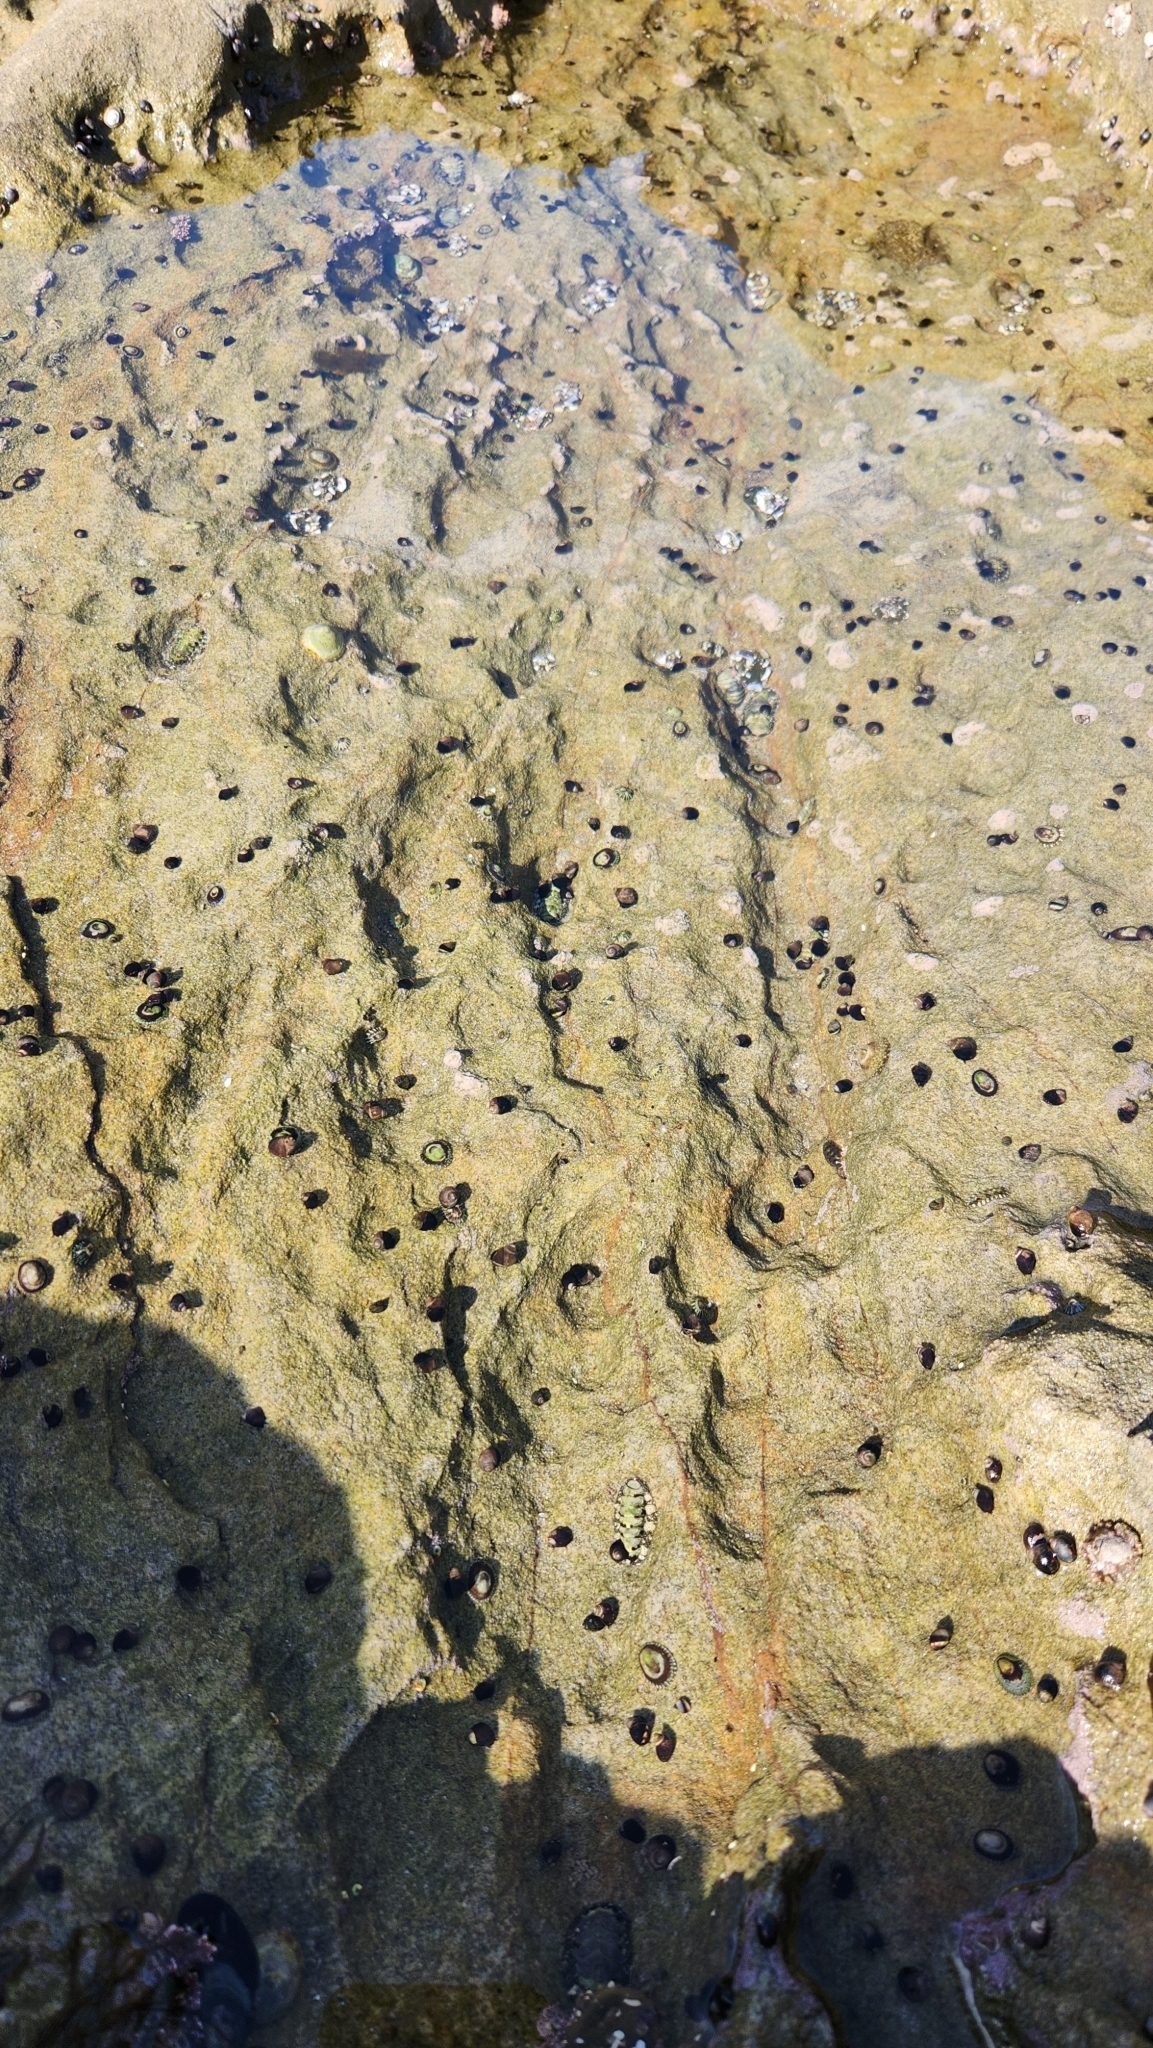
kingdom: Animalia
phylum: Mollusca
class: Gastropoda
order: Trochida
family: Tegulidae
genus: Tegula
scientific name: Tegula funebralis
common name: Black tegula
